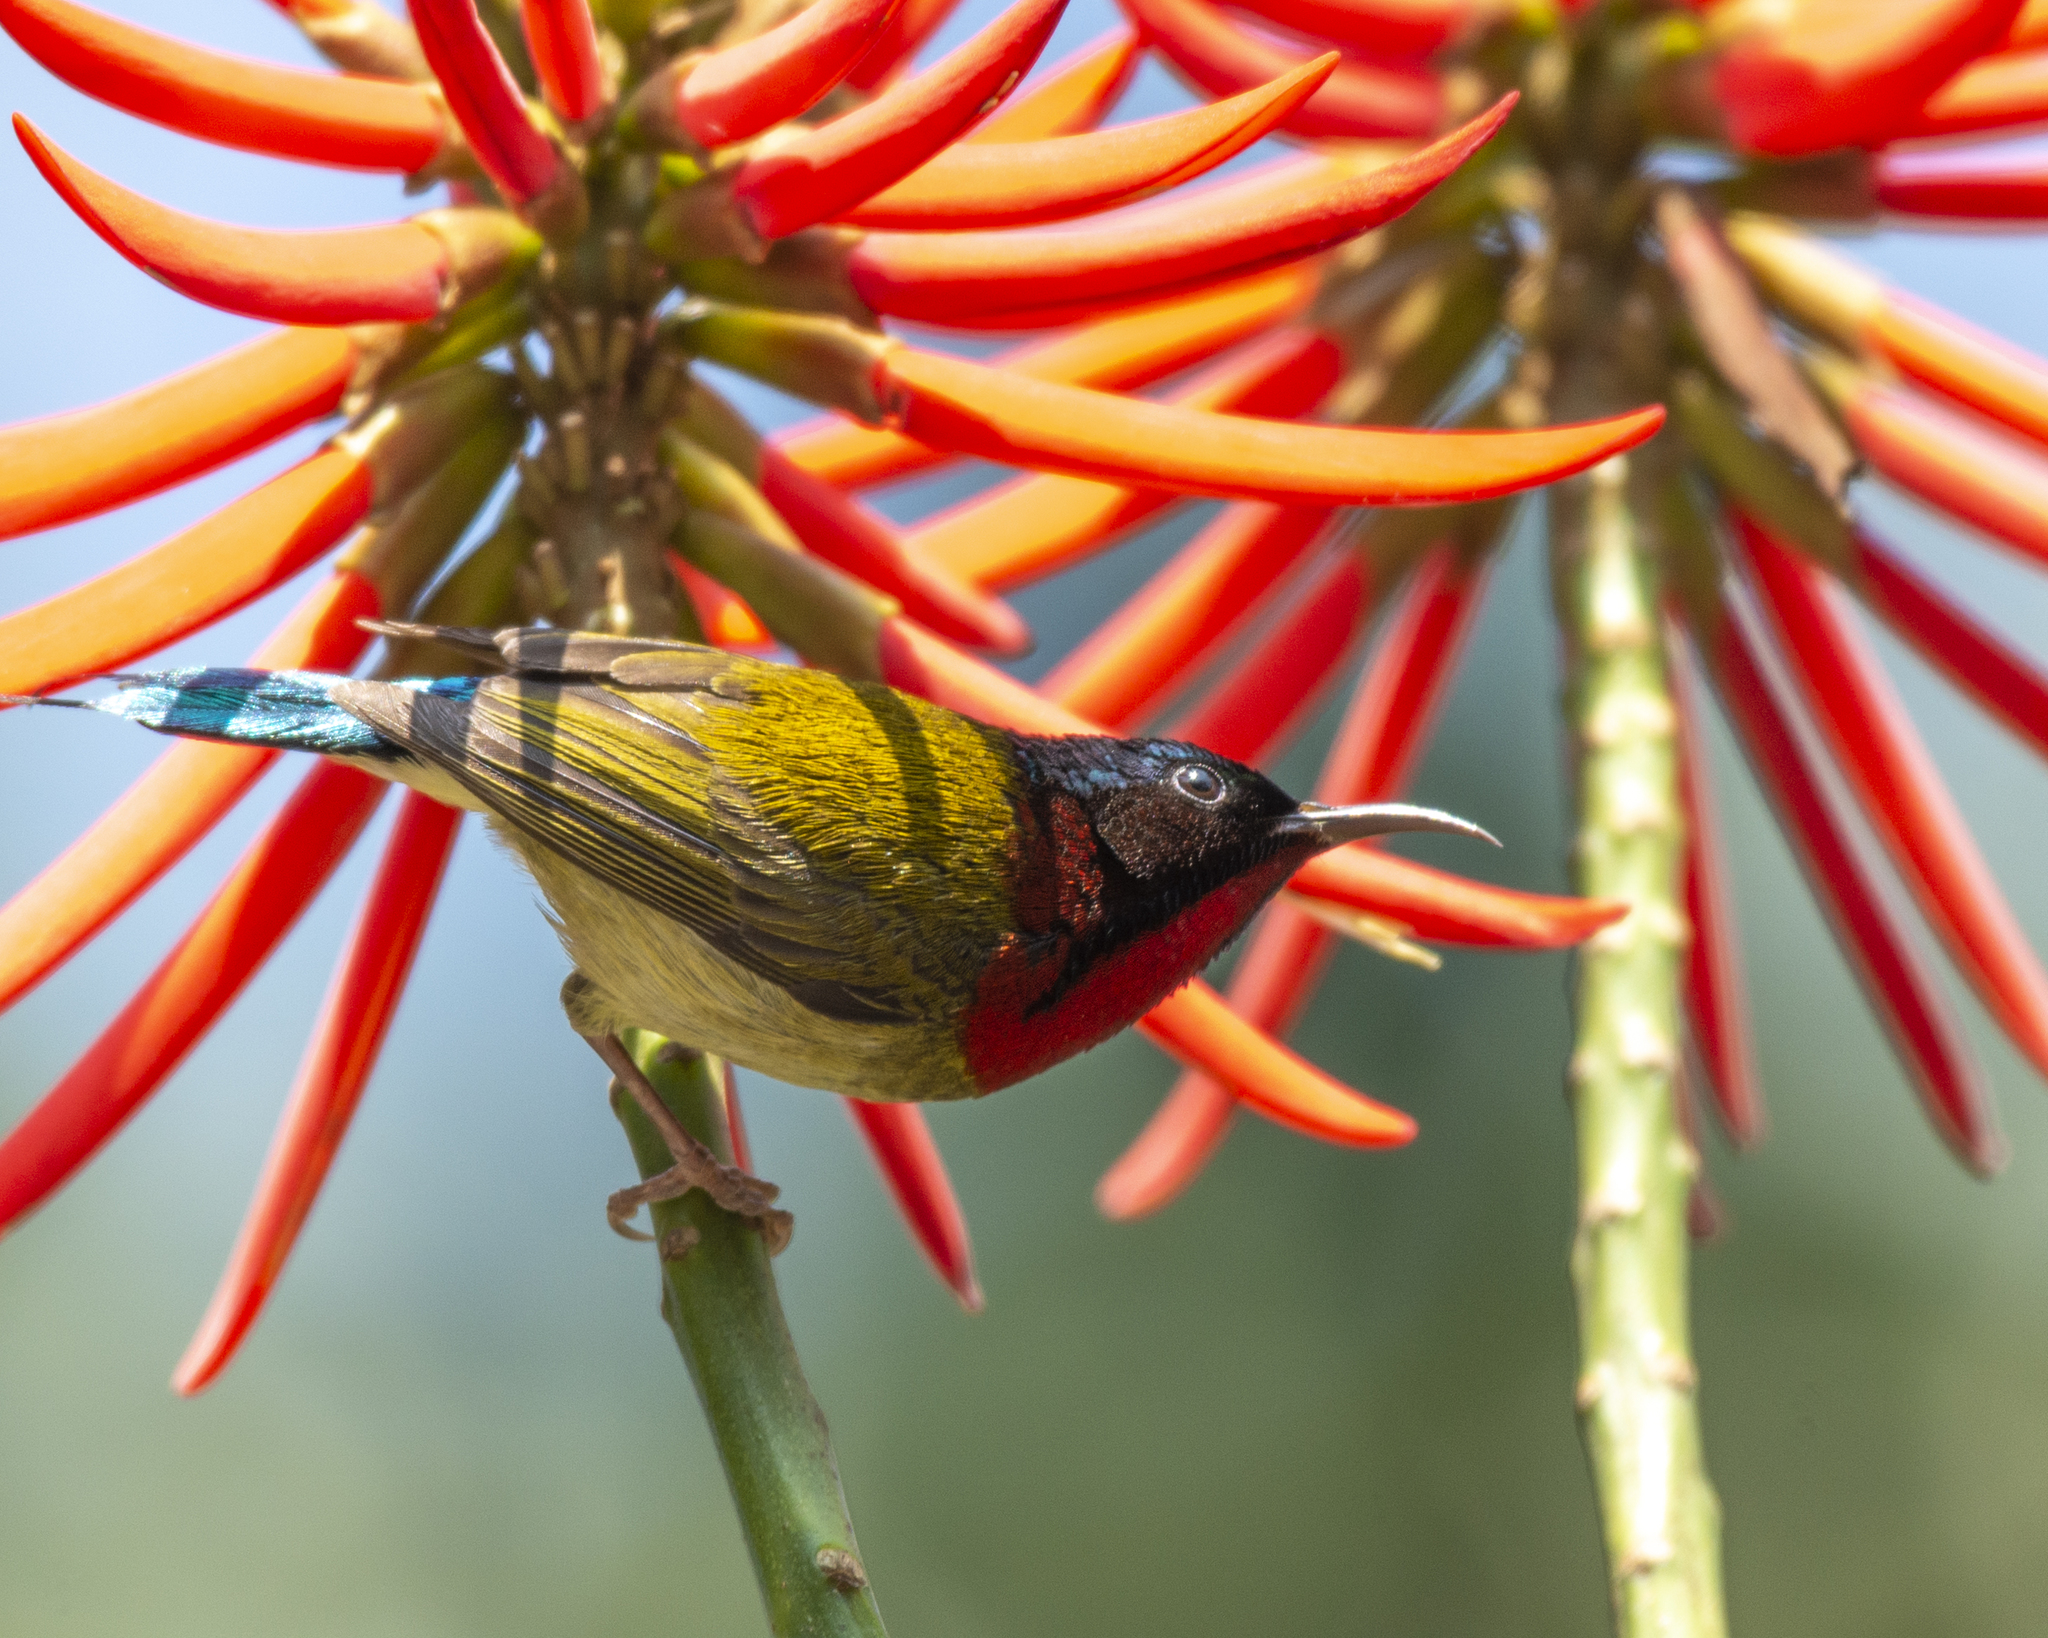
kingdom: Animalia
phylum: Chordata
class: Aves
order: Passeriformes
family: Nectariniidae
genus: Aethopyga
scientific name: Aethopyga christinae
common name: Fork-tailed sunbird
